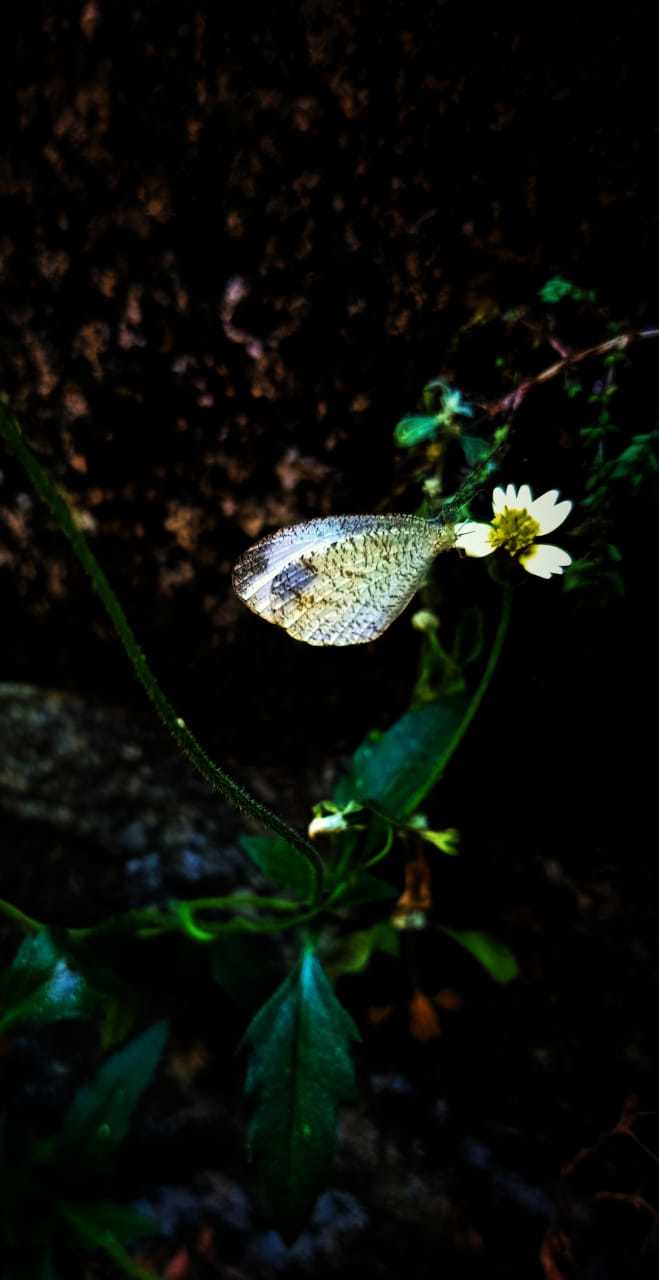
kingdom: Animalia
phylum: Arthropoda
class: Insecta
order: Lepidoptera
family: Pieridae
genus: Leptosia
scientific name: Leptosia nina
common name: Psyche
